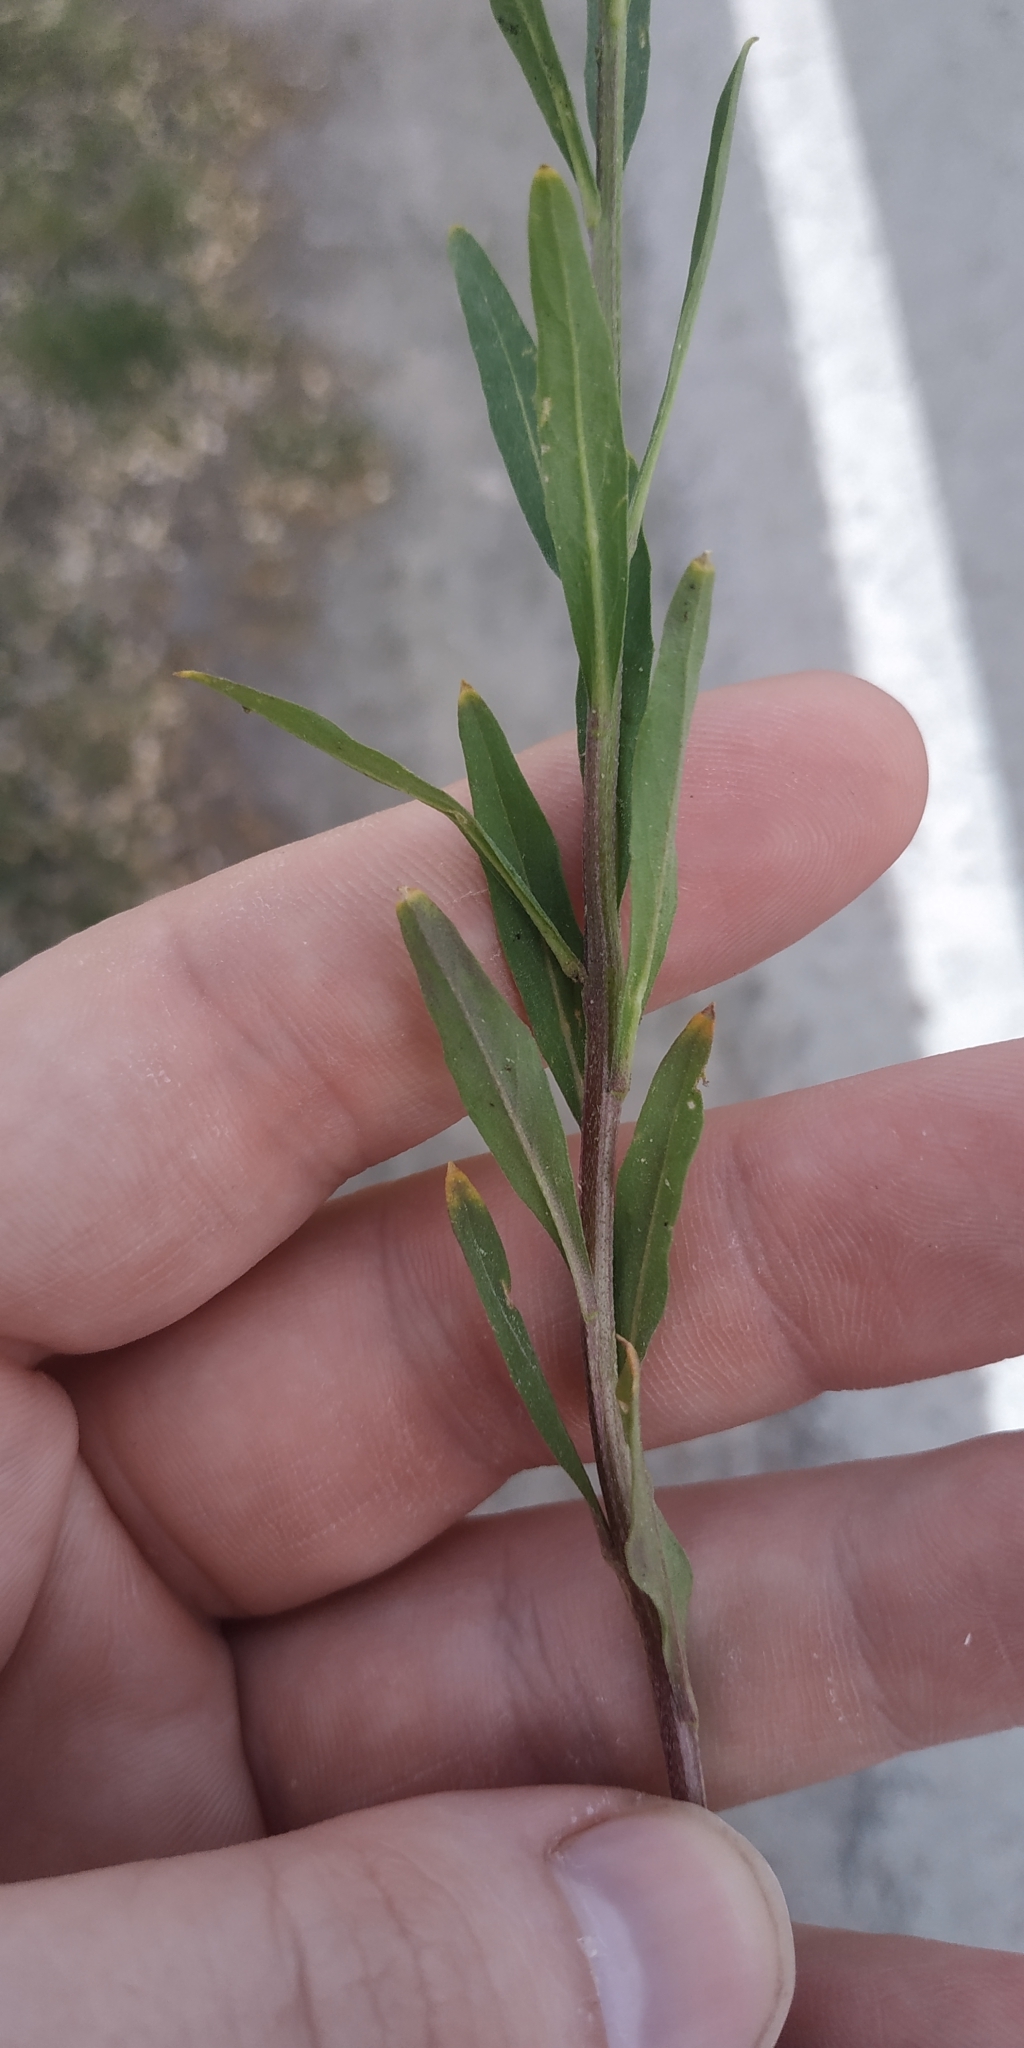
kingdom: Plantae
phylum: Tracheophyta
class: Magnoliopsida
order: Brassicales
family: Brassicaceae
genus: Erysimum
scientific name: Erysimum cheiranthoides
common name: Treacle mustard
